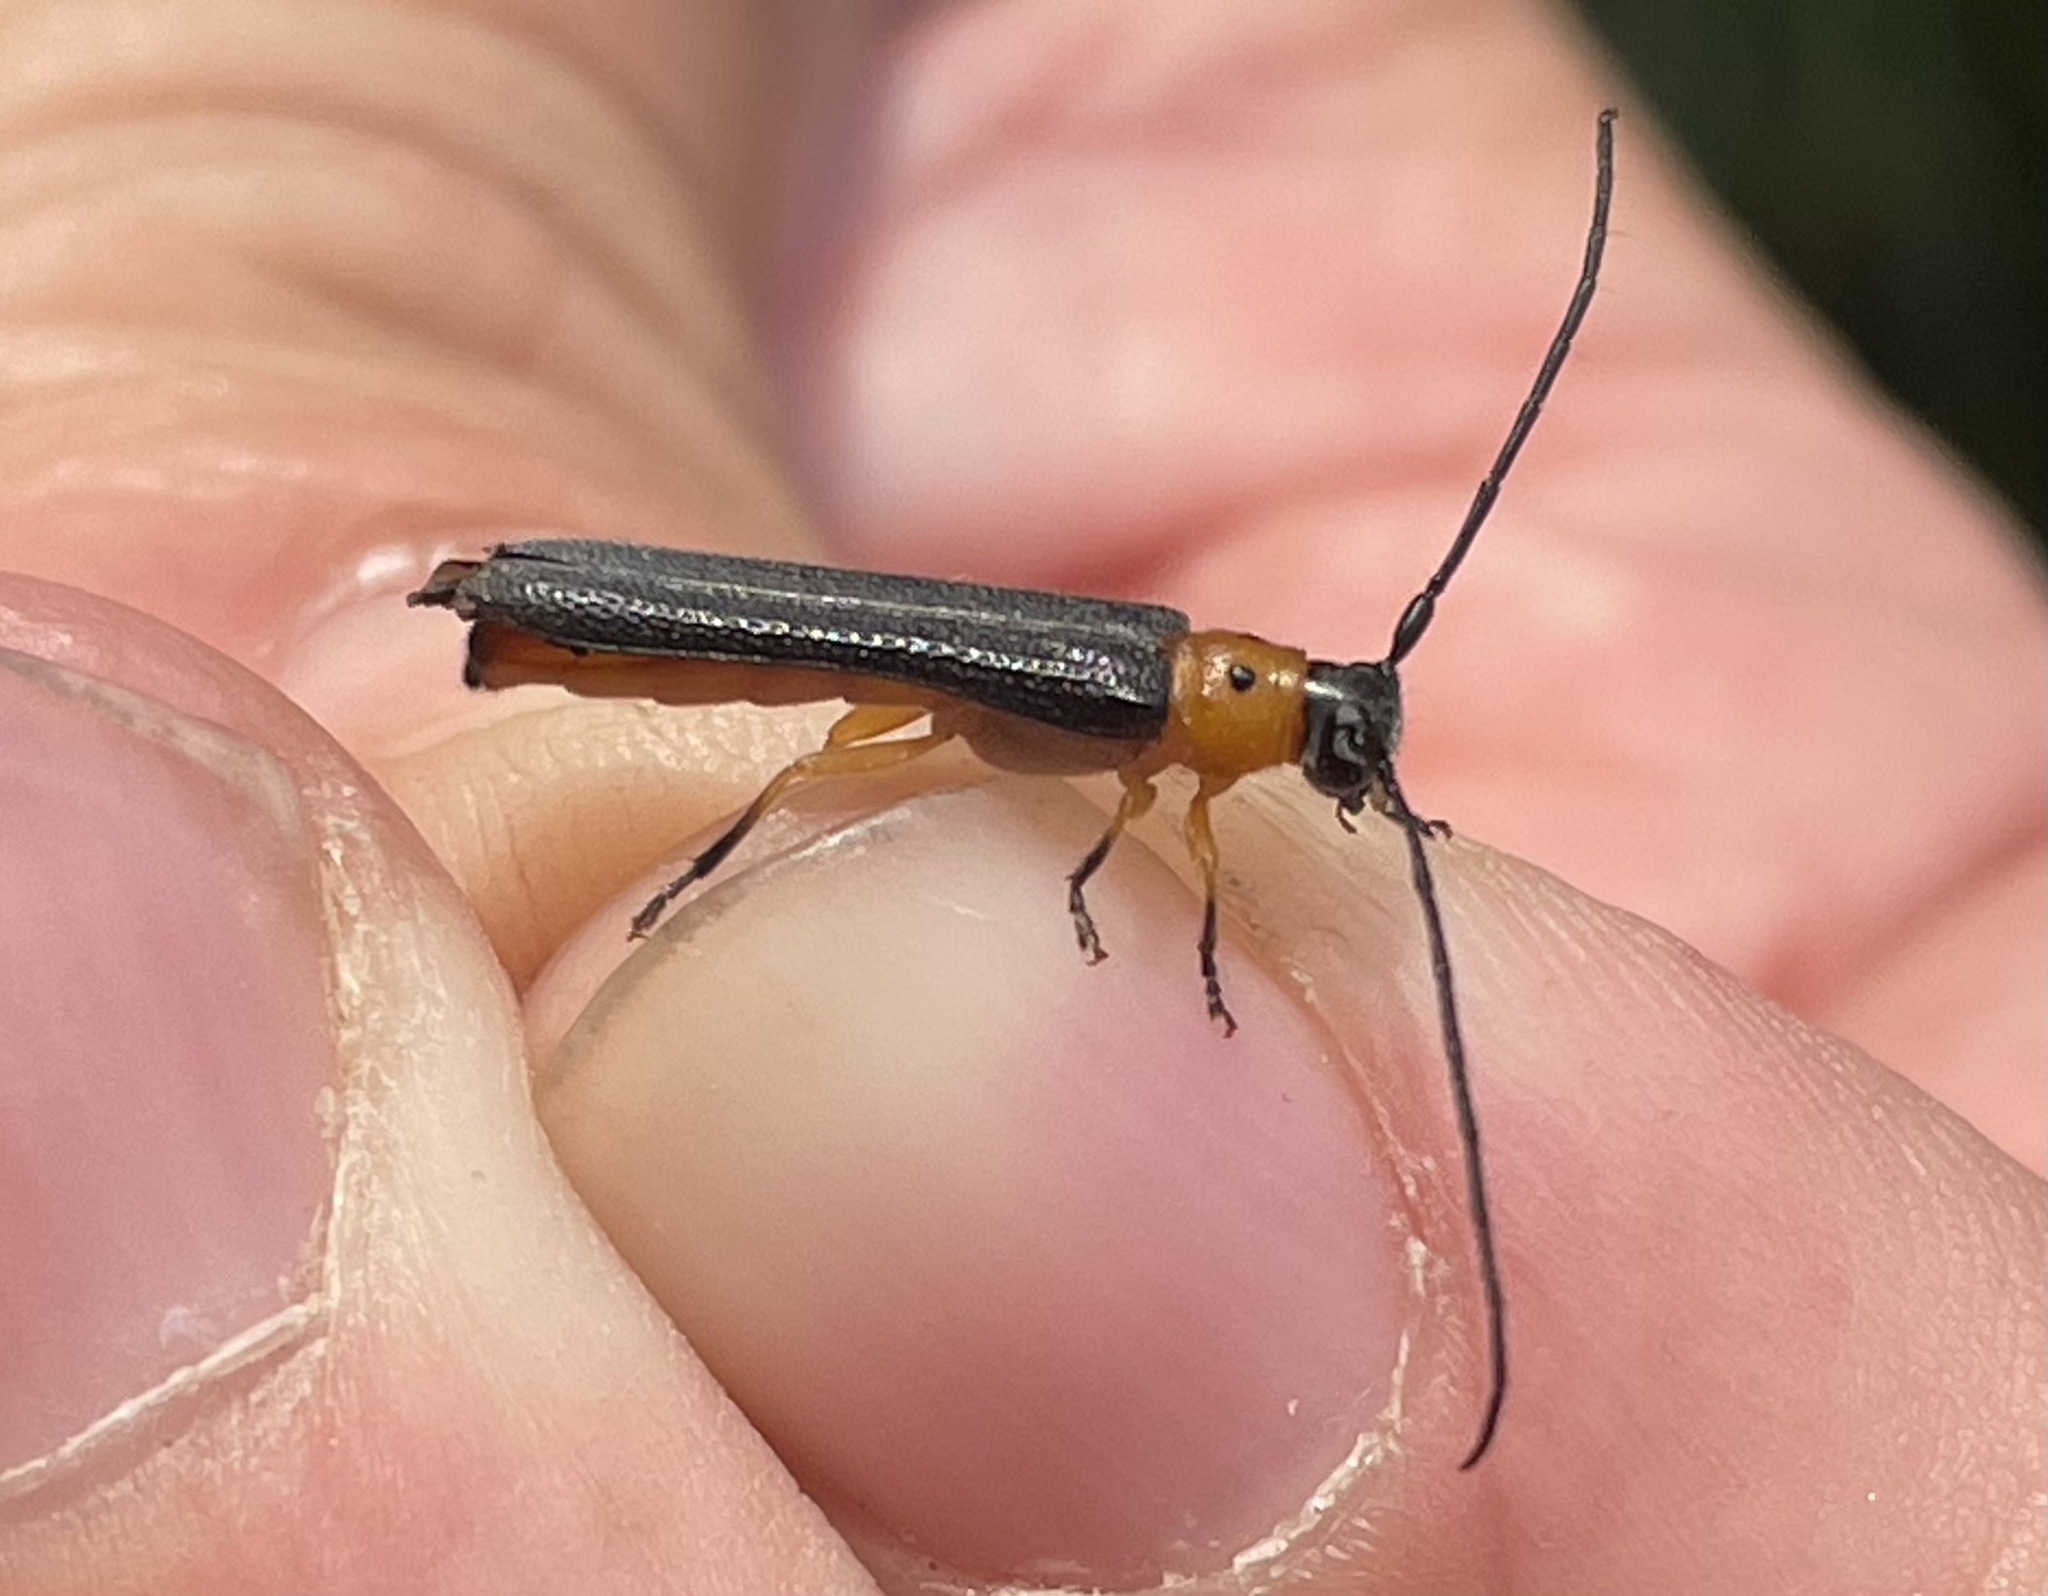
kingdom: Animalia
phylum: Arthropoda
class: Insecta
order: Coleoptera
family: Cerambycidae
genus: Oberea
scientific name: Oberea ulmicola
